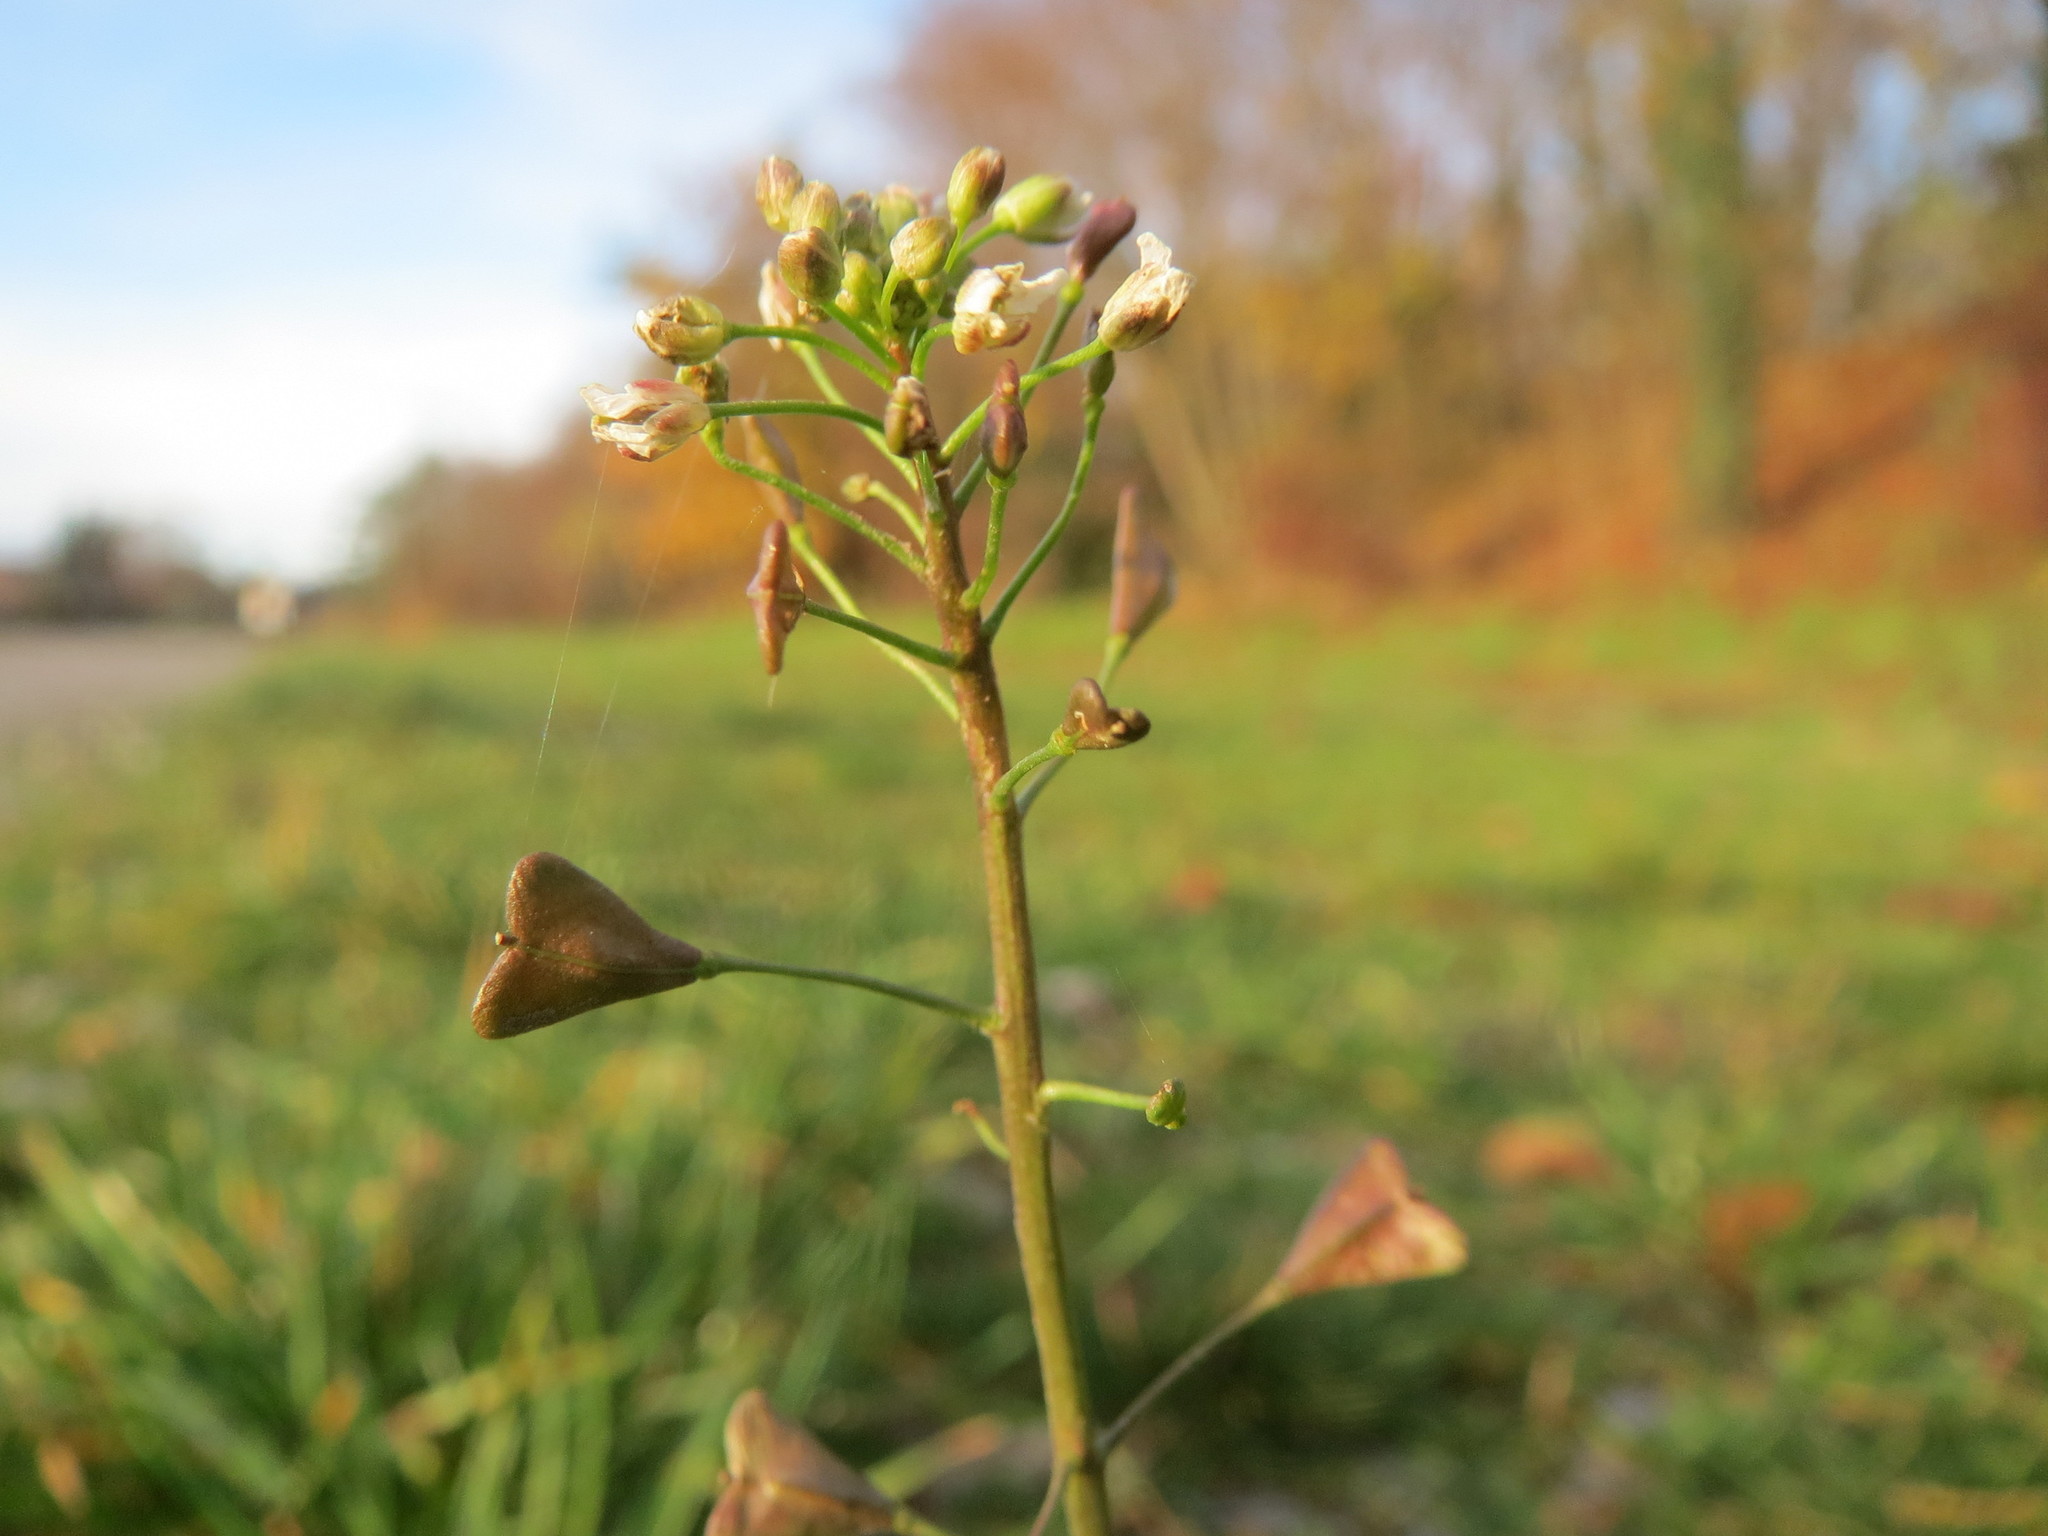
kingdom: Plantae
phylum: Tracheophyta
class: Magnoliopsida
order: Brassicales
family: Brassicaceae
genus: Capsella
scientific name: Capsella bursa-pastoris
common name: Shepherd's purse
